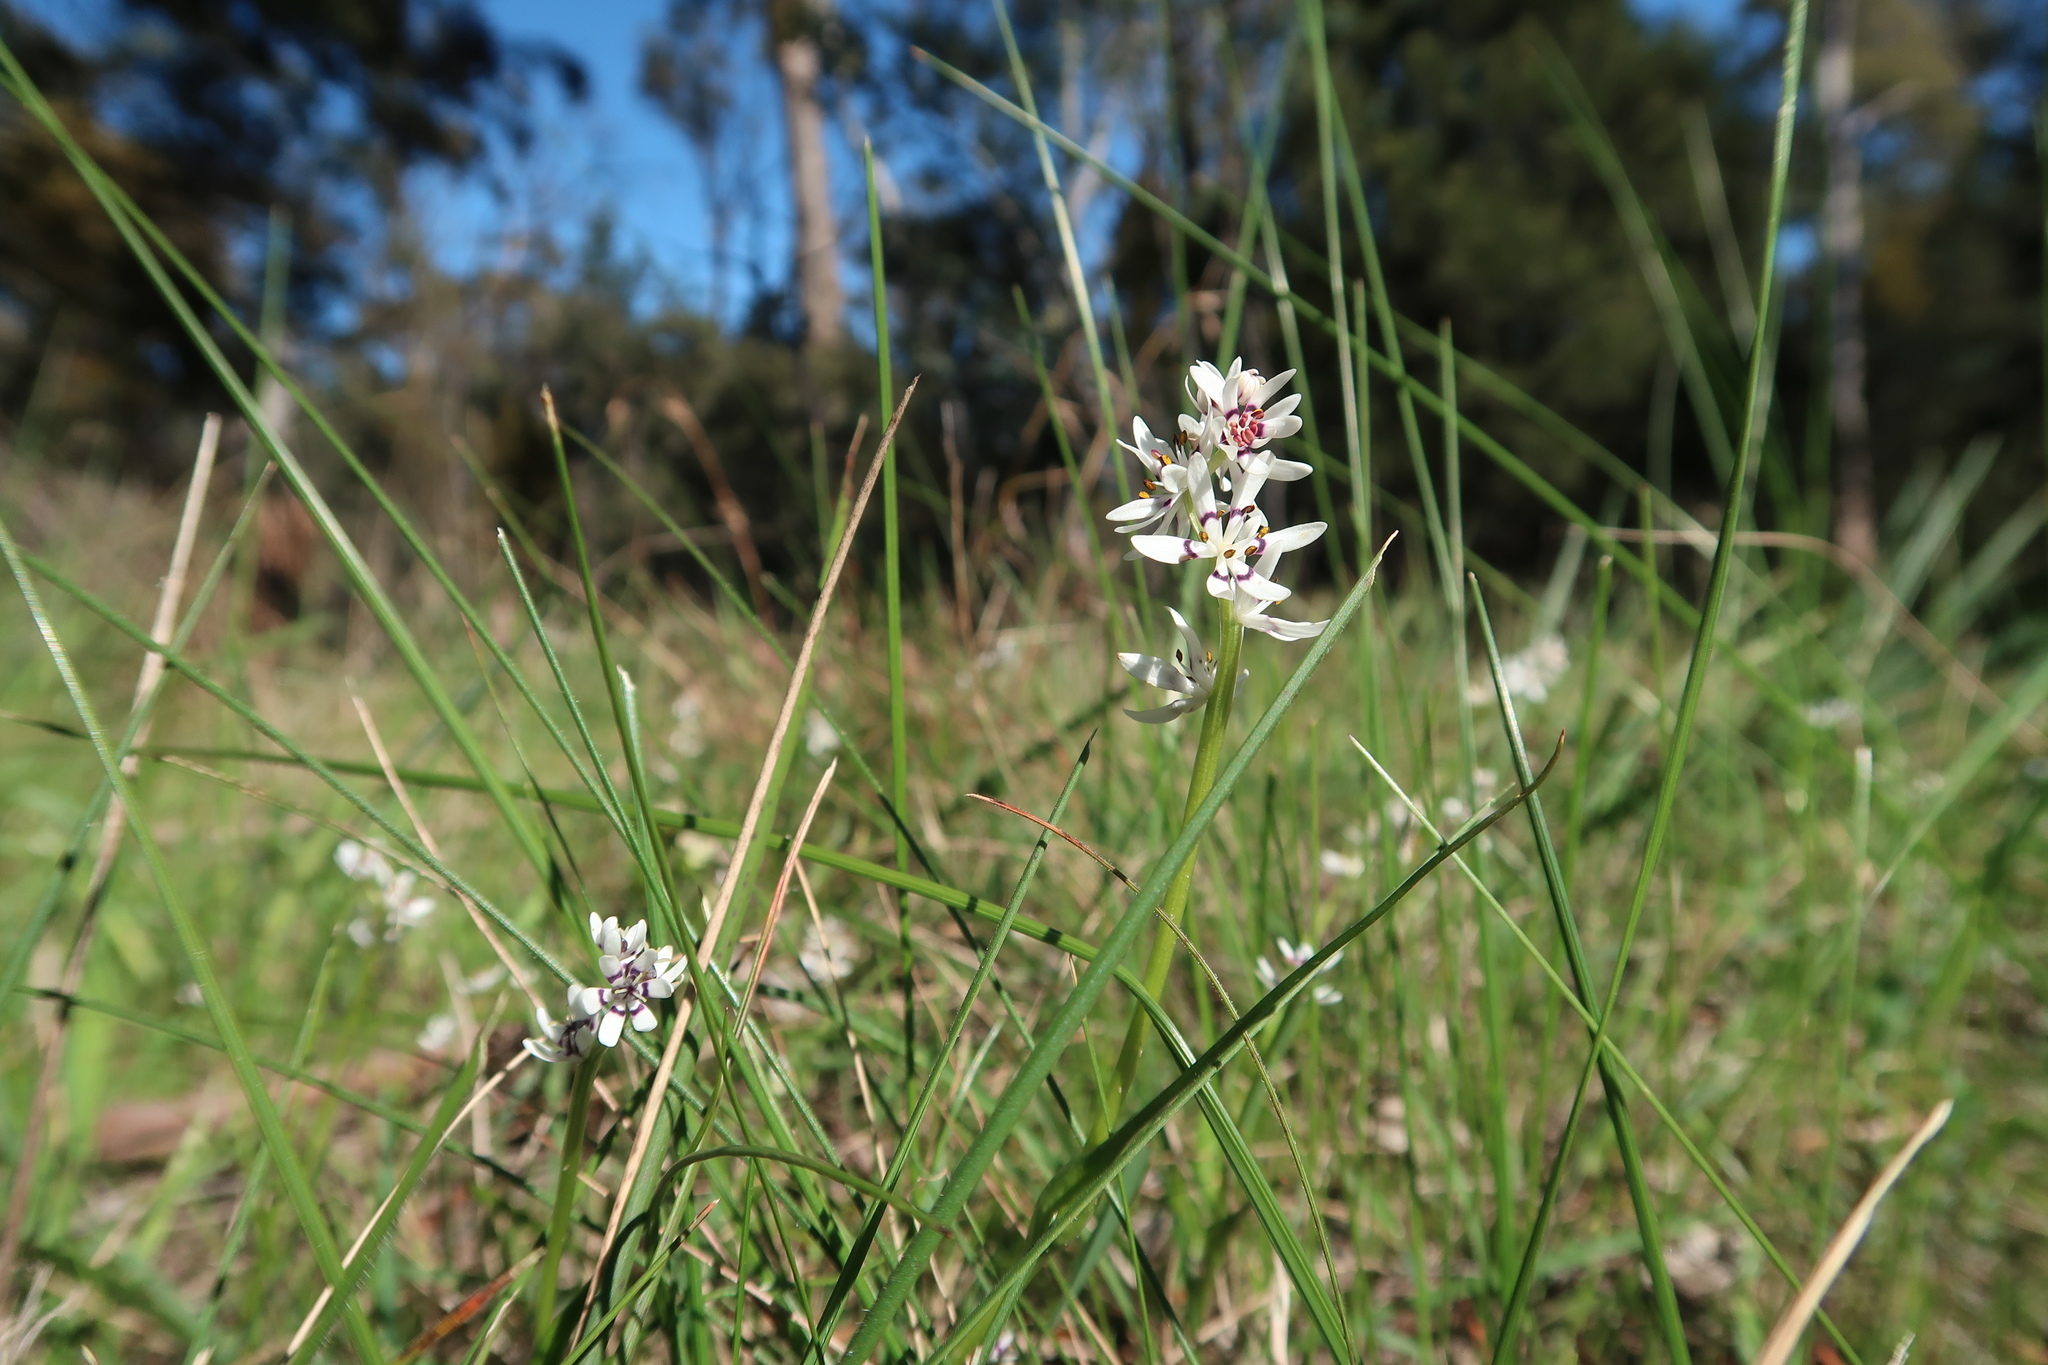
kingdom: Plantae
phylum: Tracheophyta
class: Liliopsida
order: Liliales
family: Colchicaceae
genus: Wurmbea
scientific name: Wurmbea dioica
